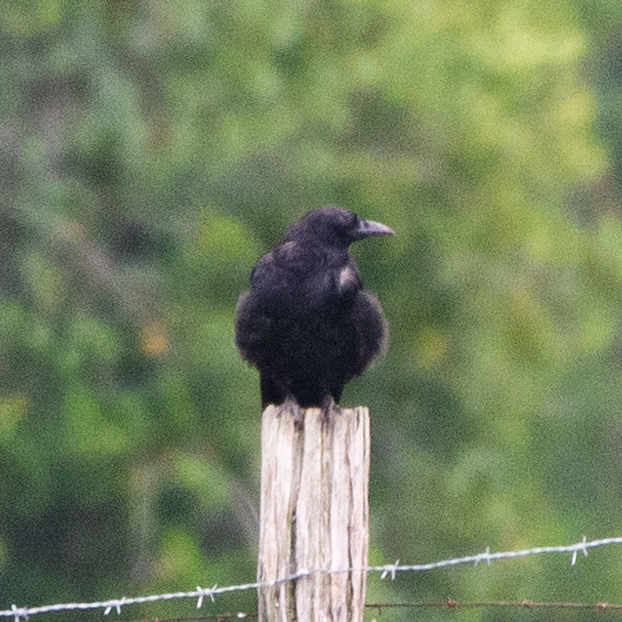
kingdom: Animalia
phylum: Chordata
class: Aves
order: Passeriformes
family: Corvidae
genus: Corvus
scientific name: Corvus corone
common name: Carrion crow
